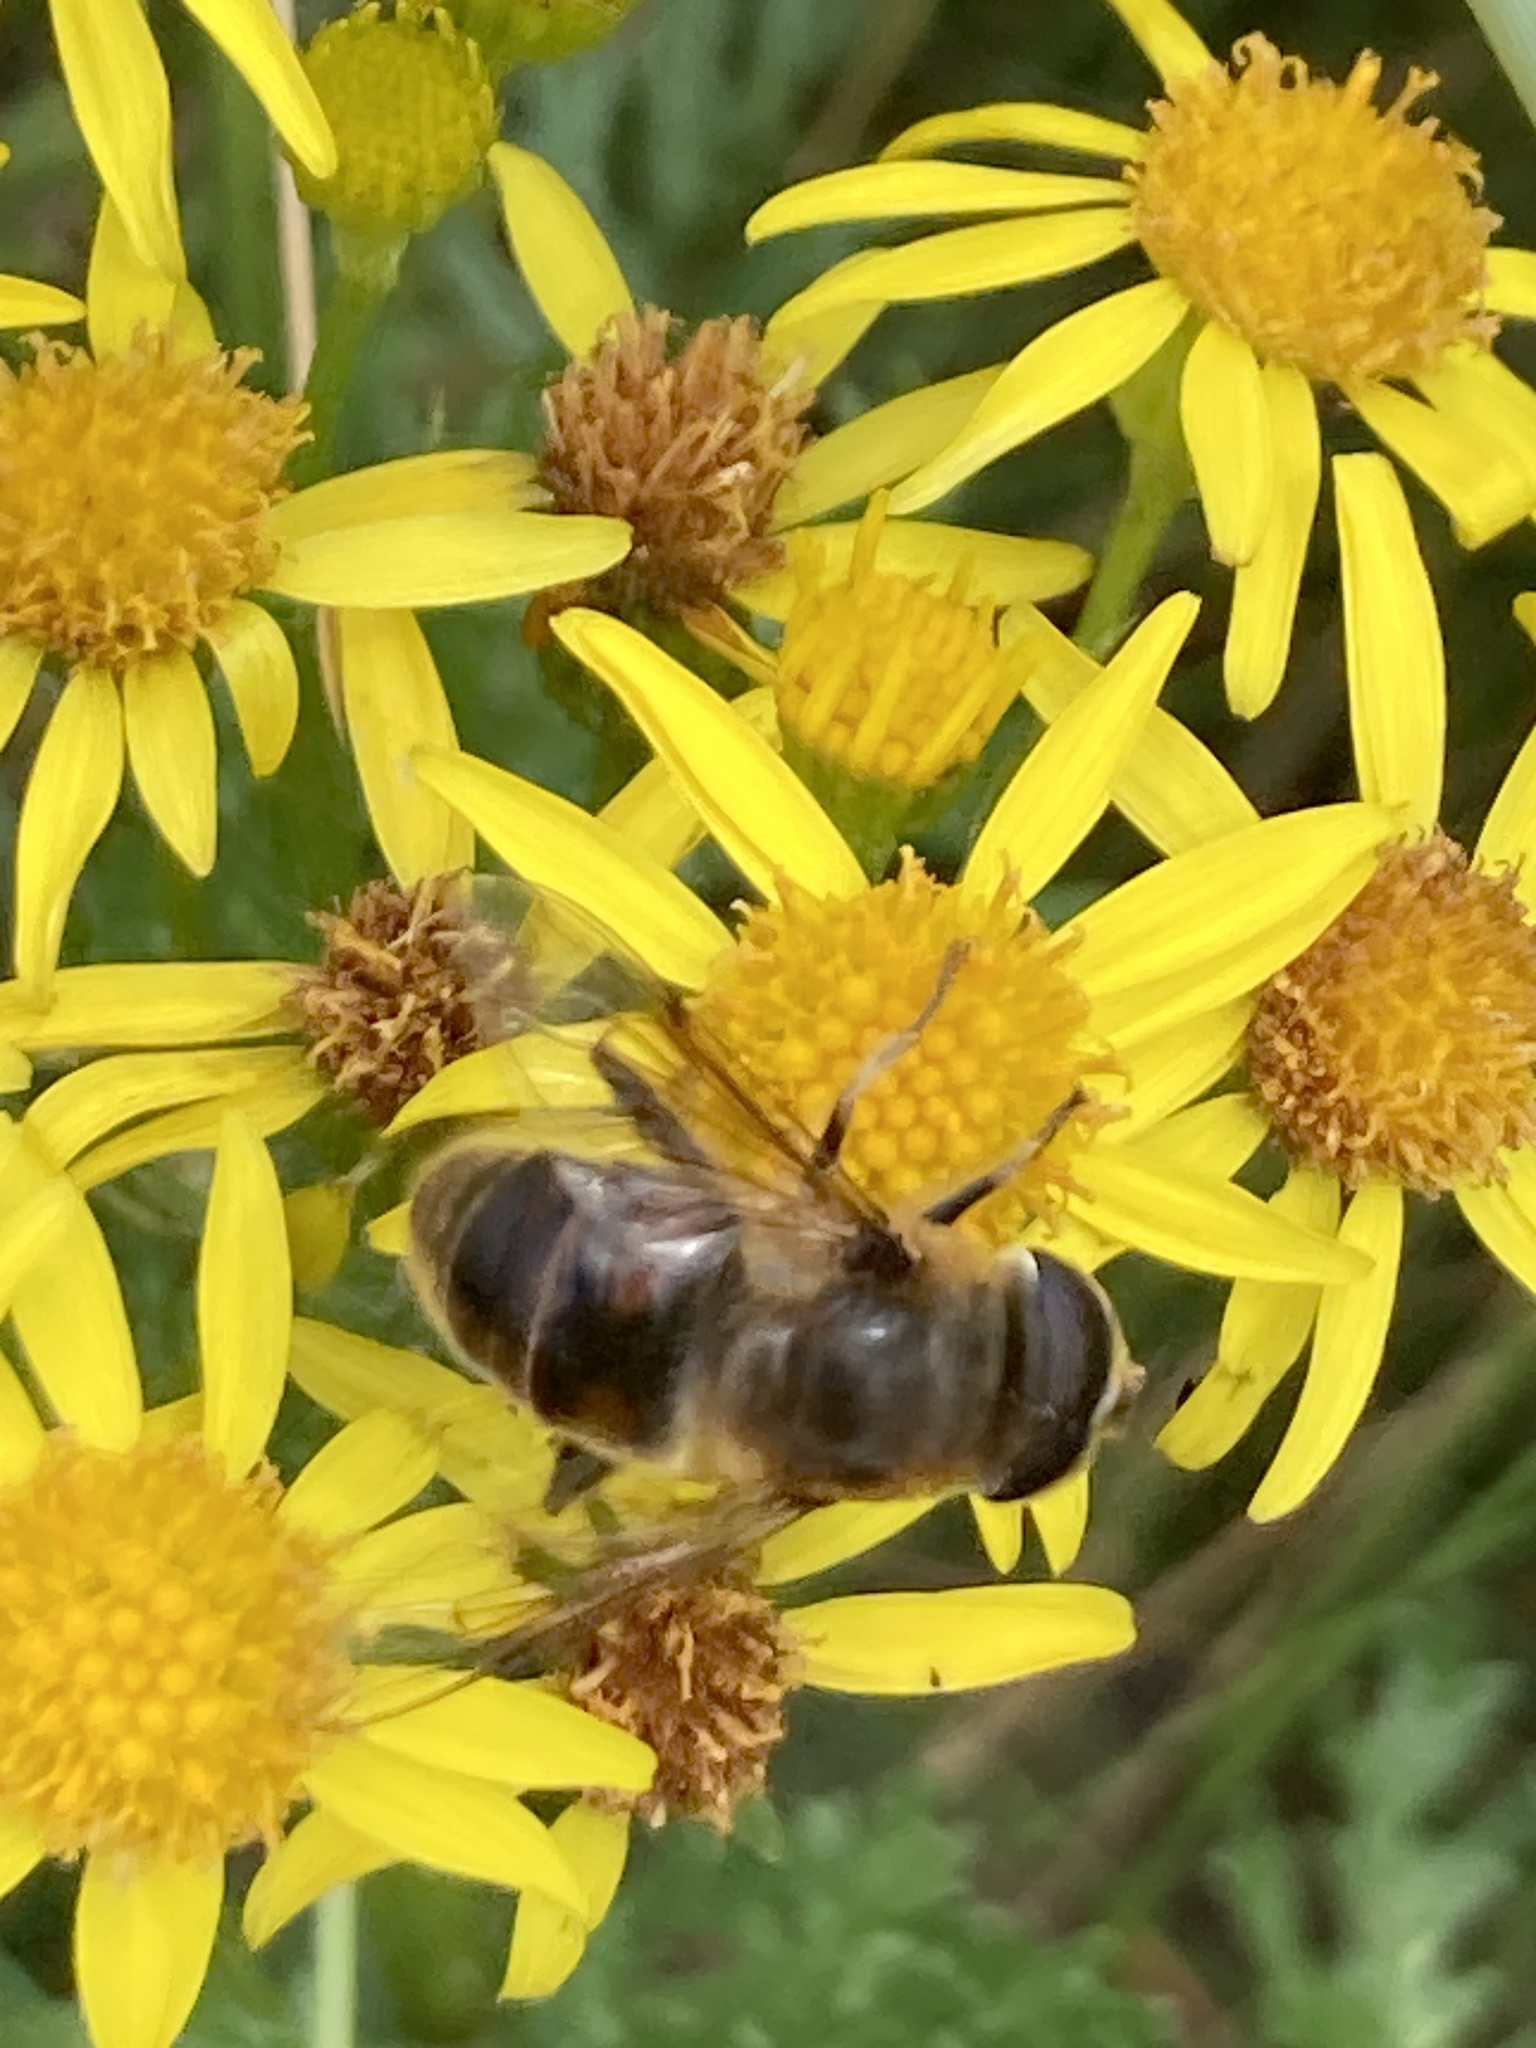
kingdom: Animalia
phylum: Arthropoda
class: Insecta
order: Diptera
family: Syrphidae
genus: Eristalis
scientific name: Eristalis tenax
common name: Drone fly
